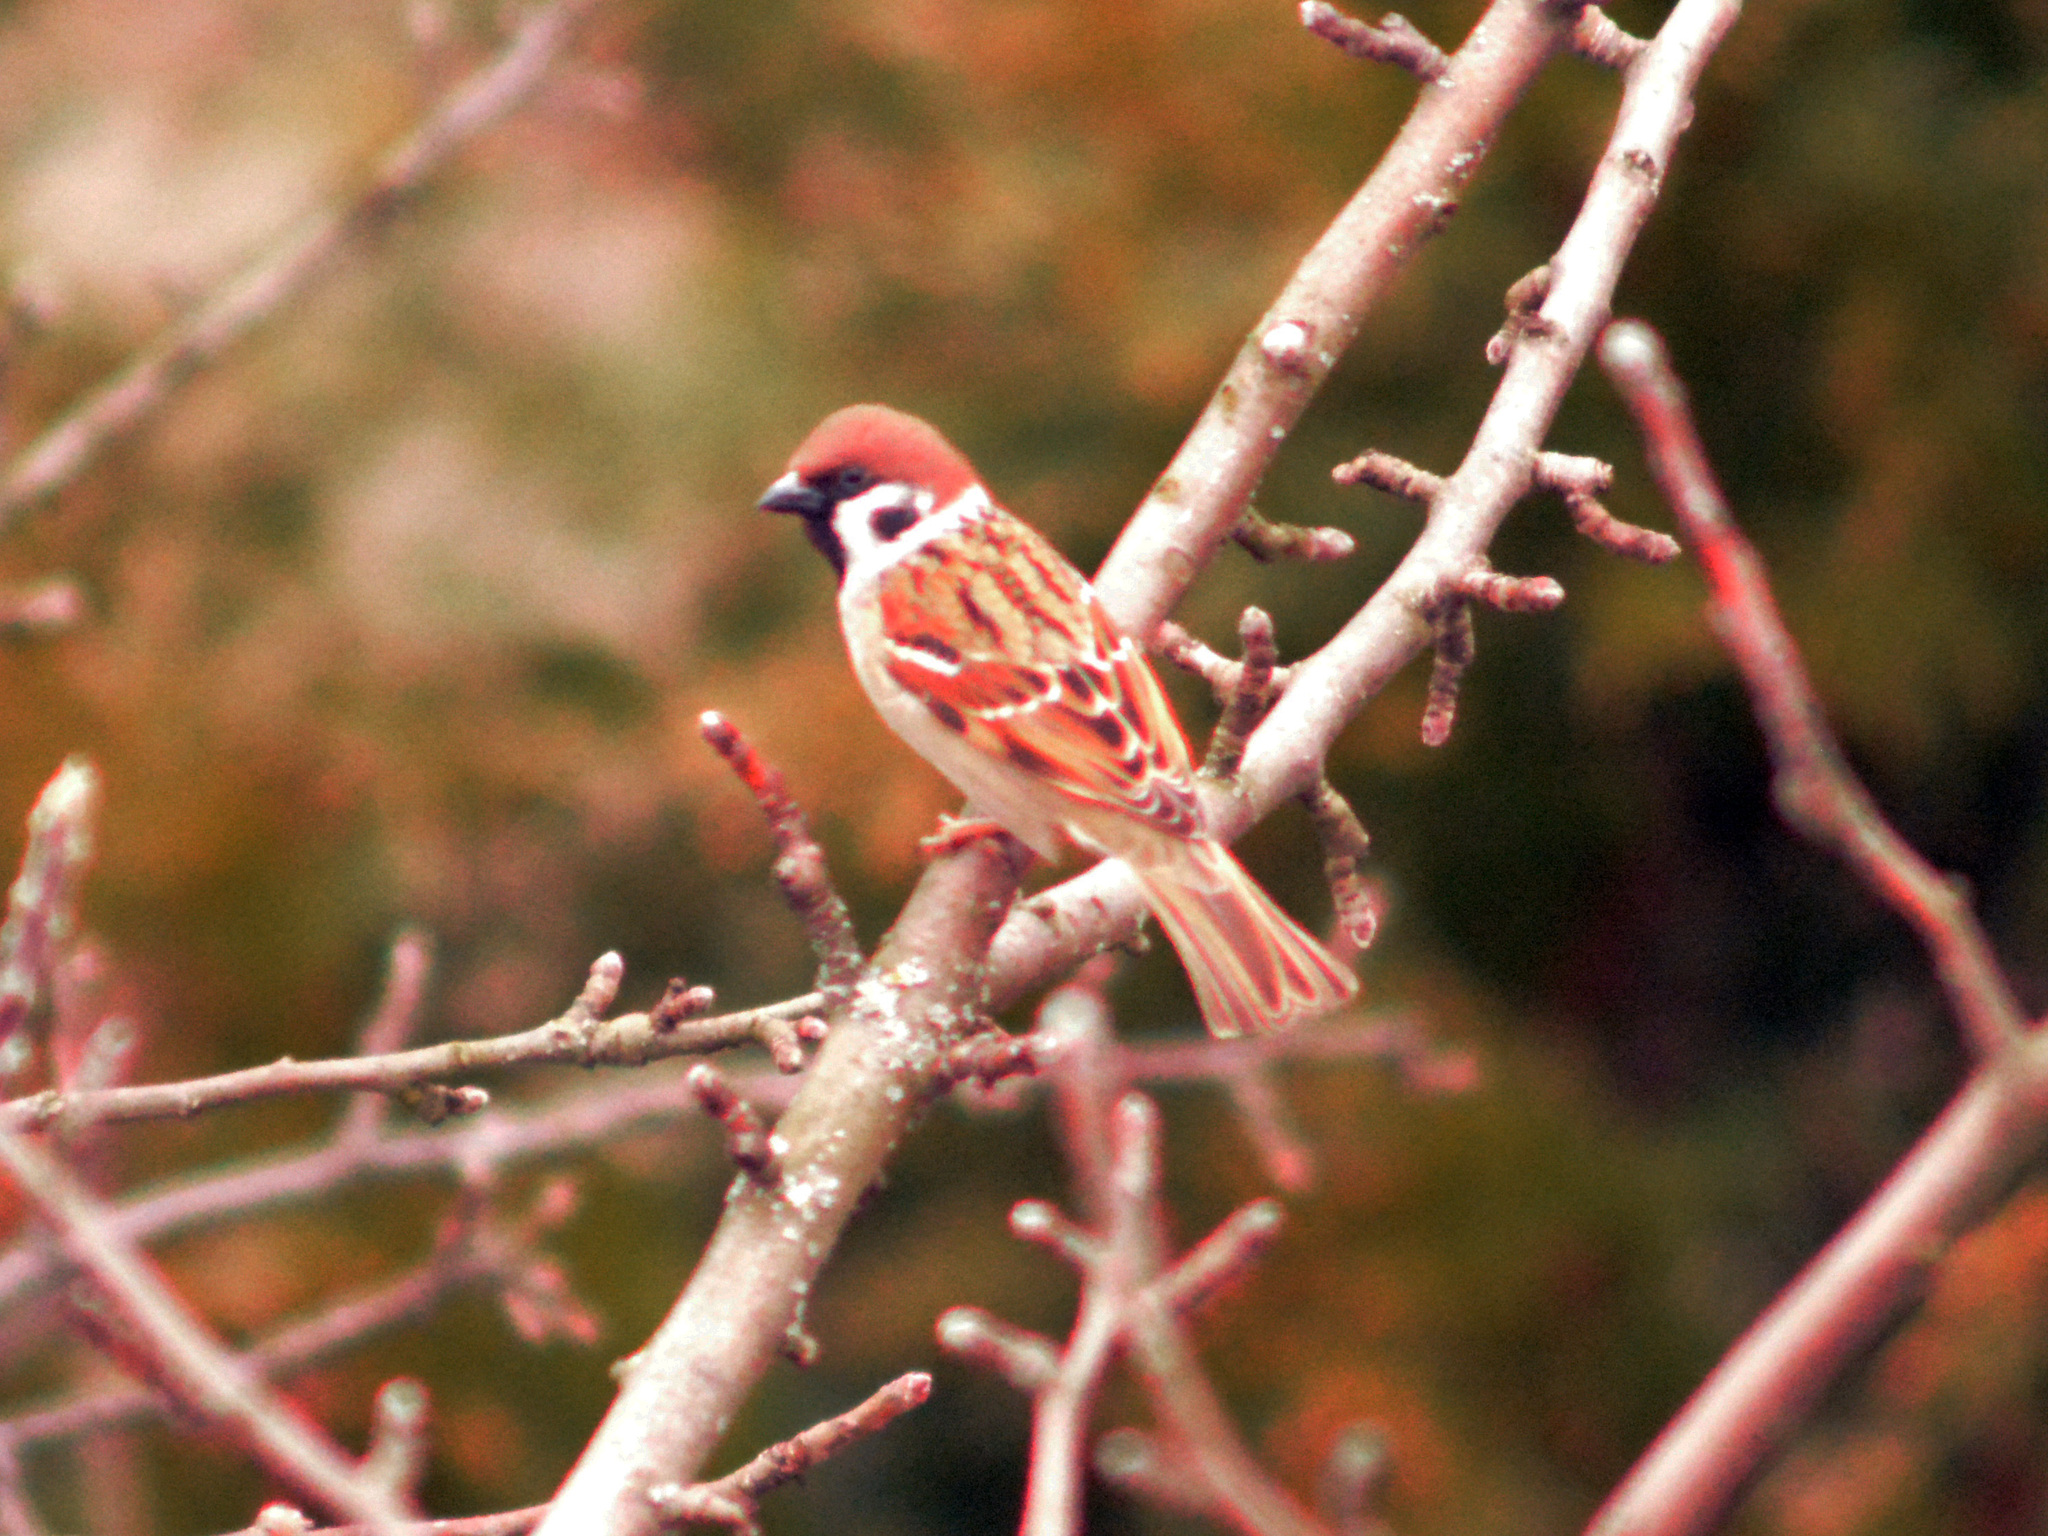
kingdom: Animalia
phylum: Chordata
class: Aves
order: Passeriformes
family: Passeridae
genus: Passer
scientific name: Passer montanus
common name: Eurasian tree sparrow
